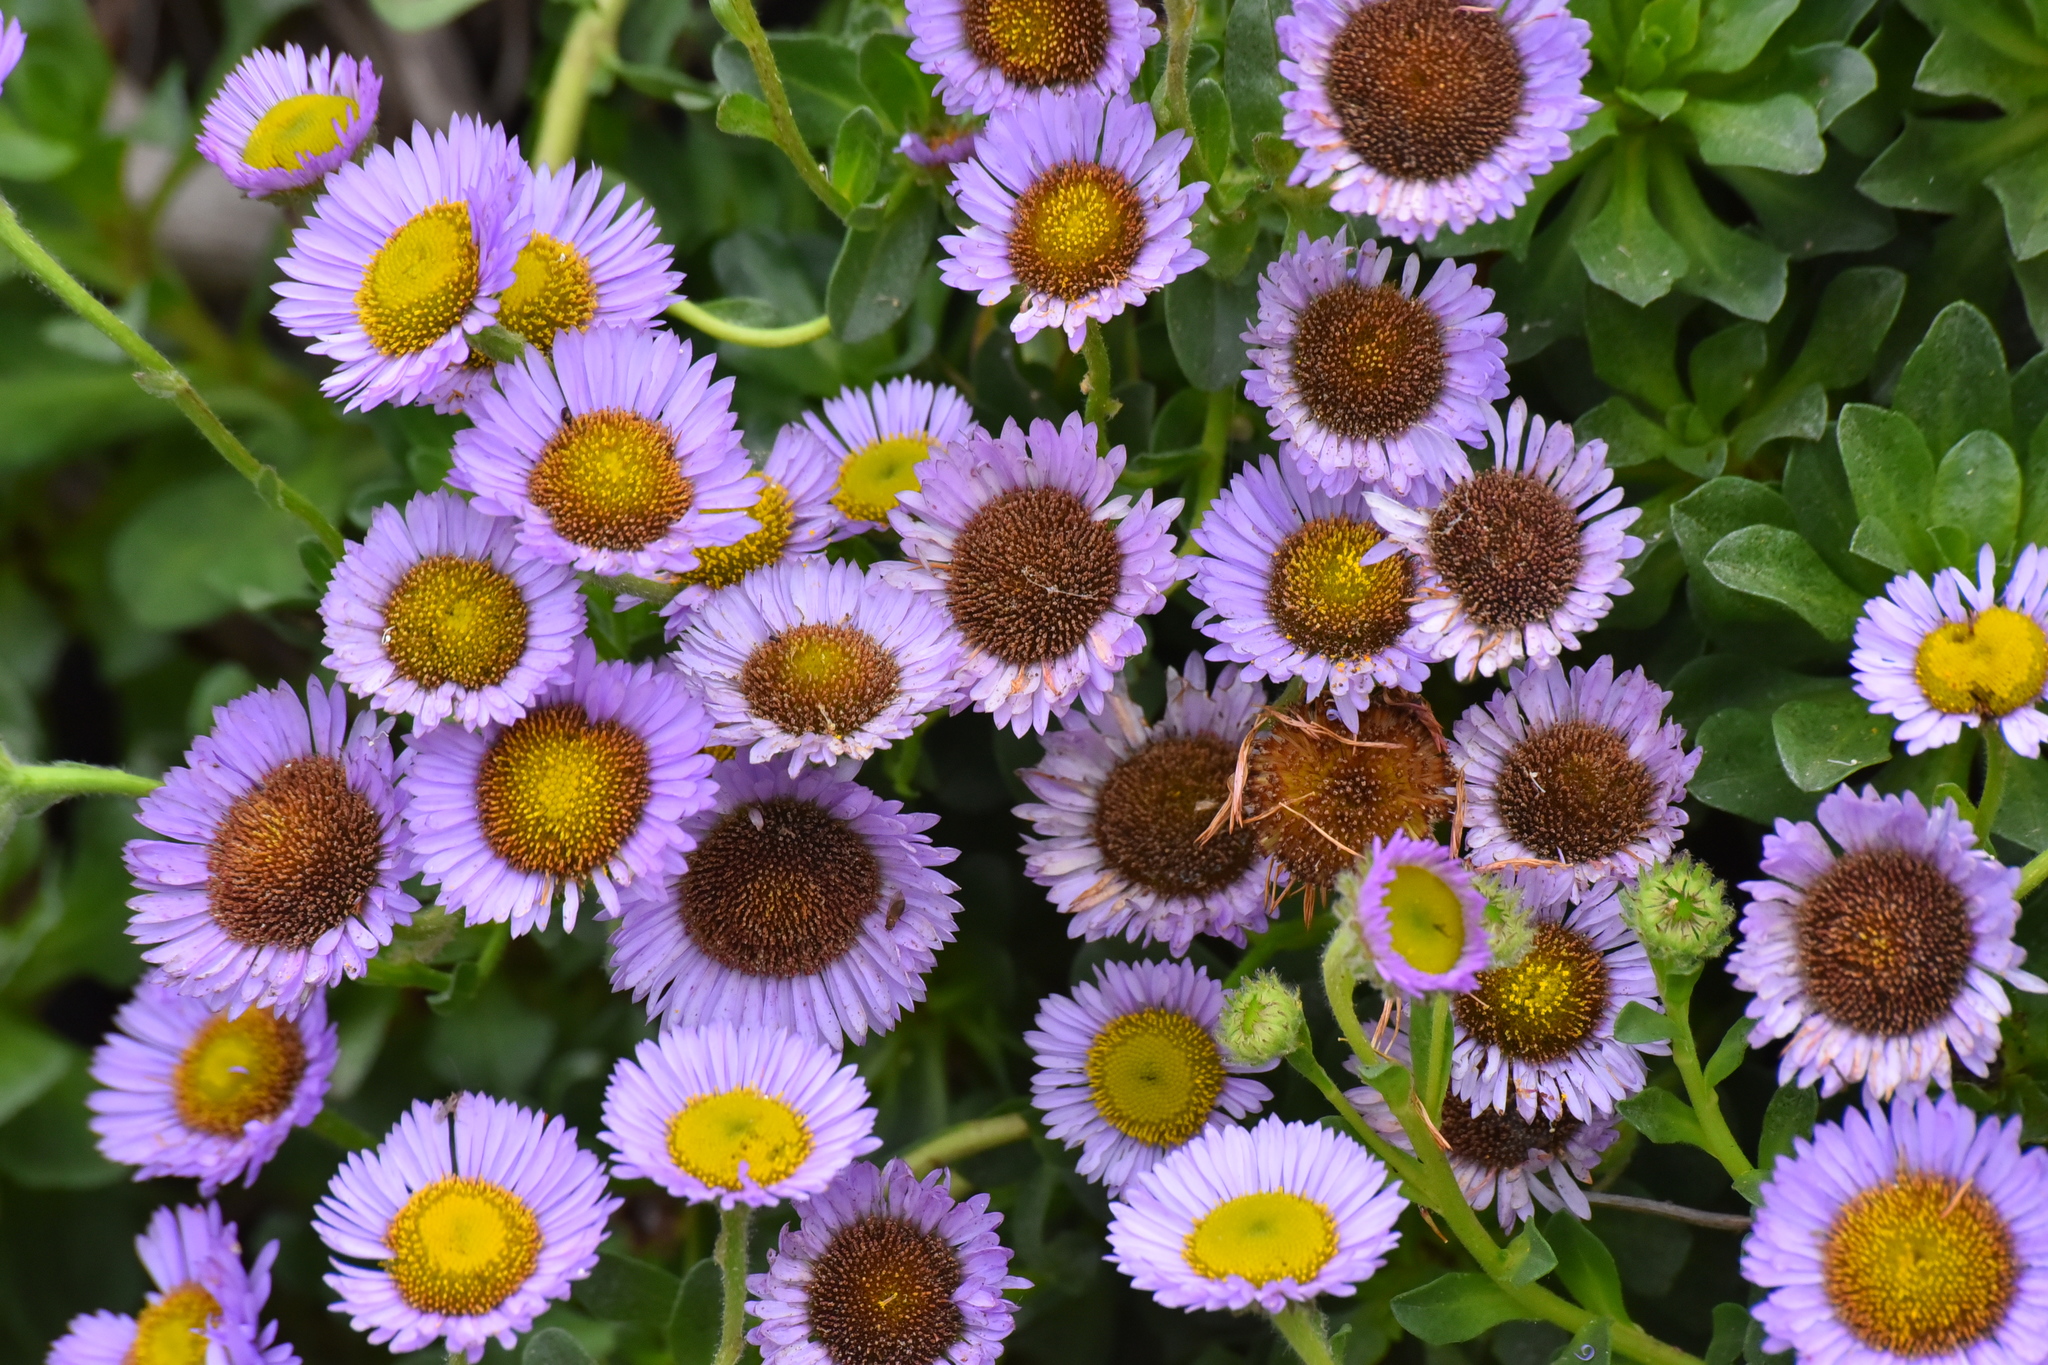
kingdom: Plantae
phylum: Tracheophyta
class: Magnoliopsida
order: Asterales
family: Asteraceae
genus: Erigeron
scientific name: Erigeron glaucus
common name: Seaside daisy
